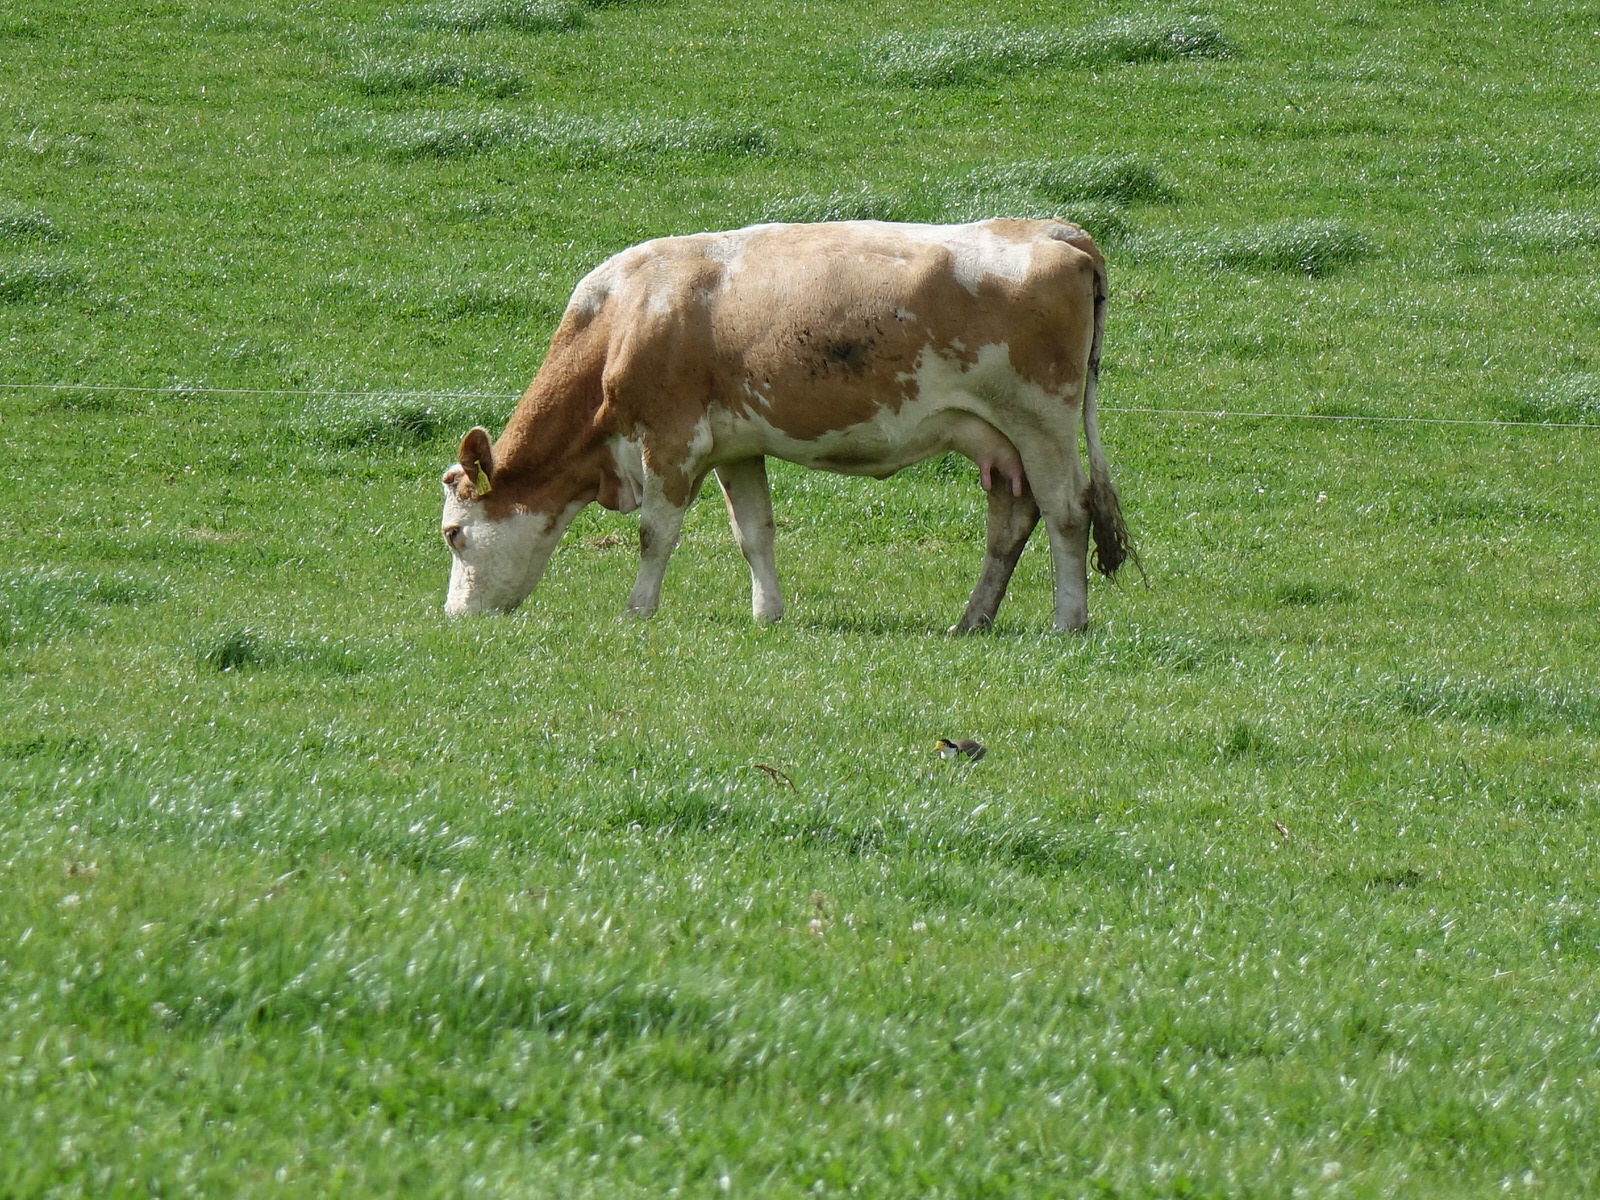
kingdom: Animalia
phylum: Chordata
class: Aves
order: Charadriiformes
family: Charadriidae
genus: Vanellus
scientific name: Vanellus miles
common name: Masked lapwing
